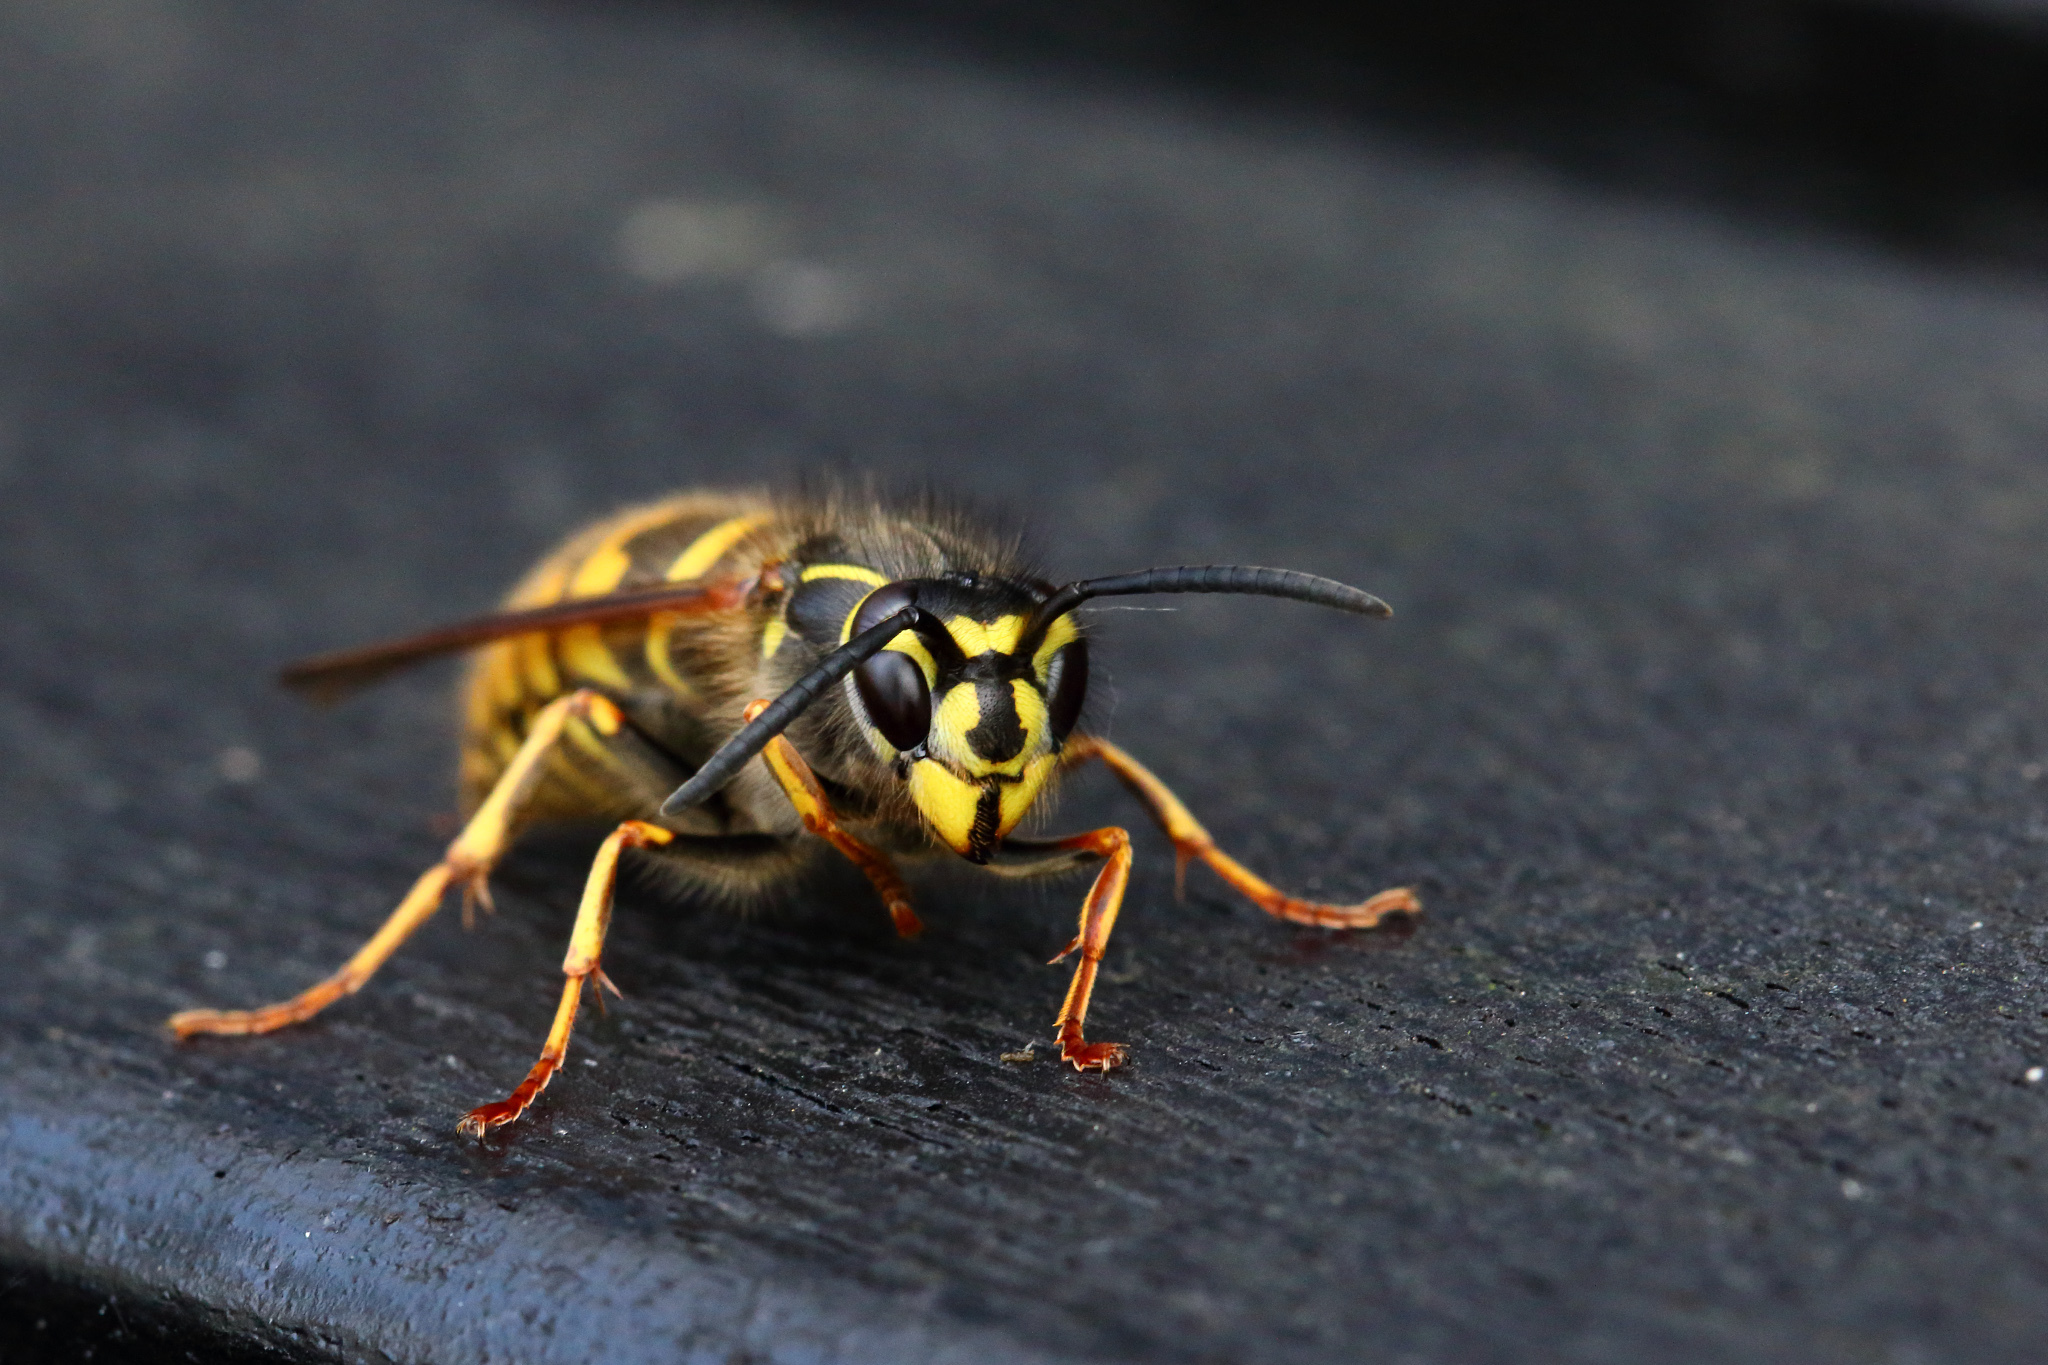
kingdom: Animalia
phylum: Arthropoda
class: Insecta
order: Hymenoptera
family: Vespidae
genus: Vespula
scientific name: Vespula vulgaris
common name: Common wasp
